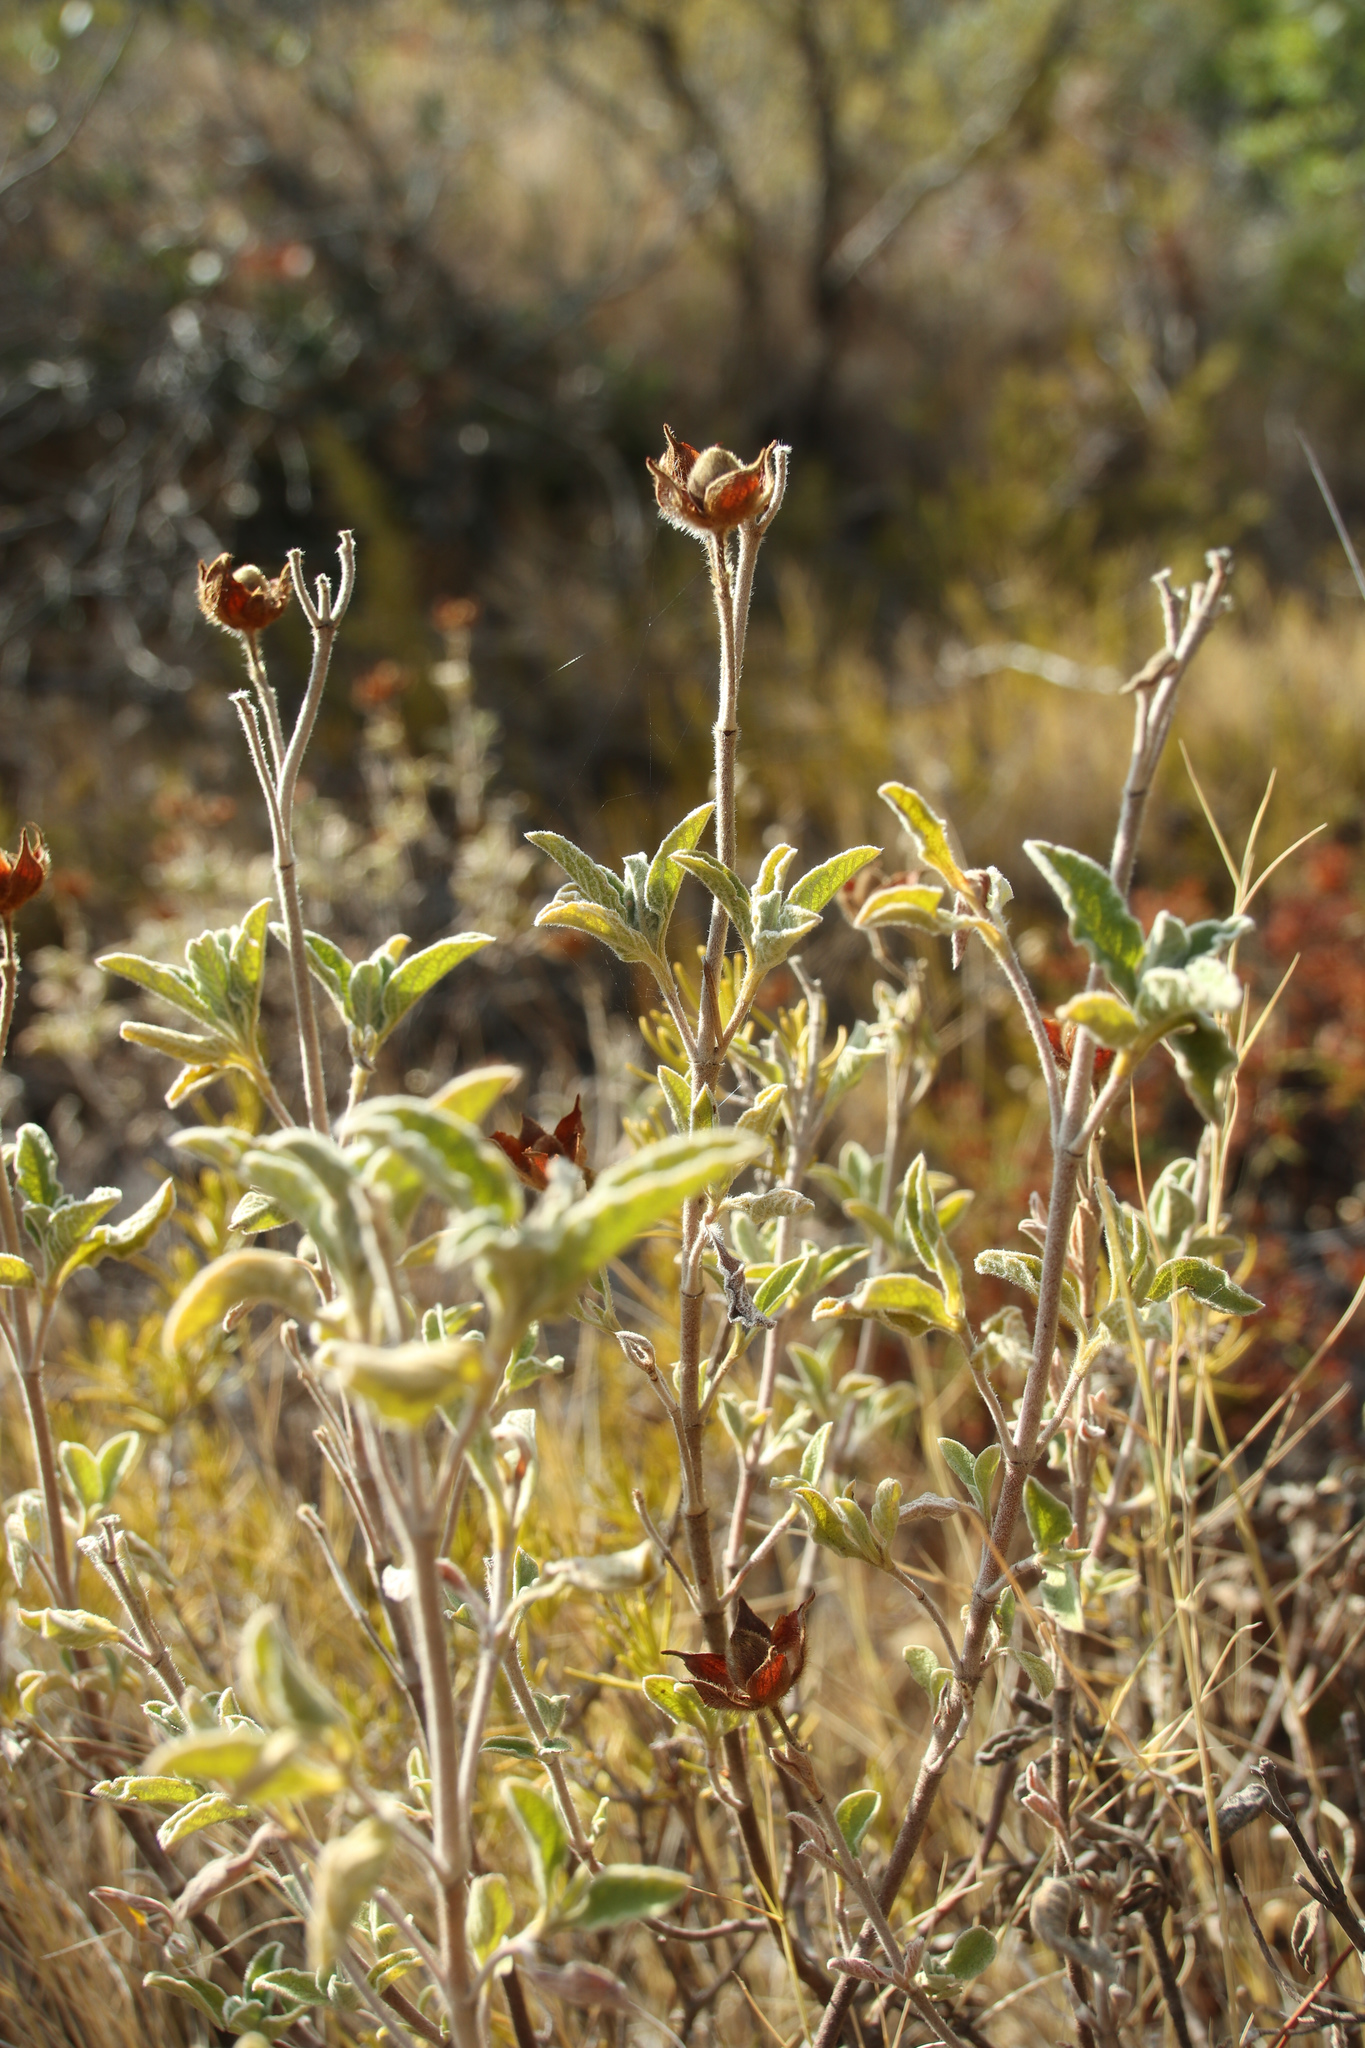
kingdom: Plantae
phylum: Tracheophyta
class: Magnoliopsida
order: Malvales
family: Cistaceae
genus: Cistus
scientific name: Cistus creticus
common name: Cretan rockrose
